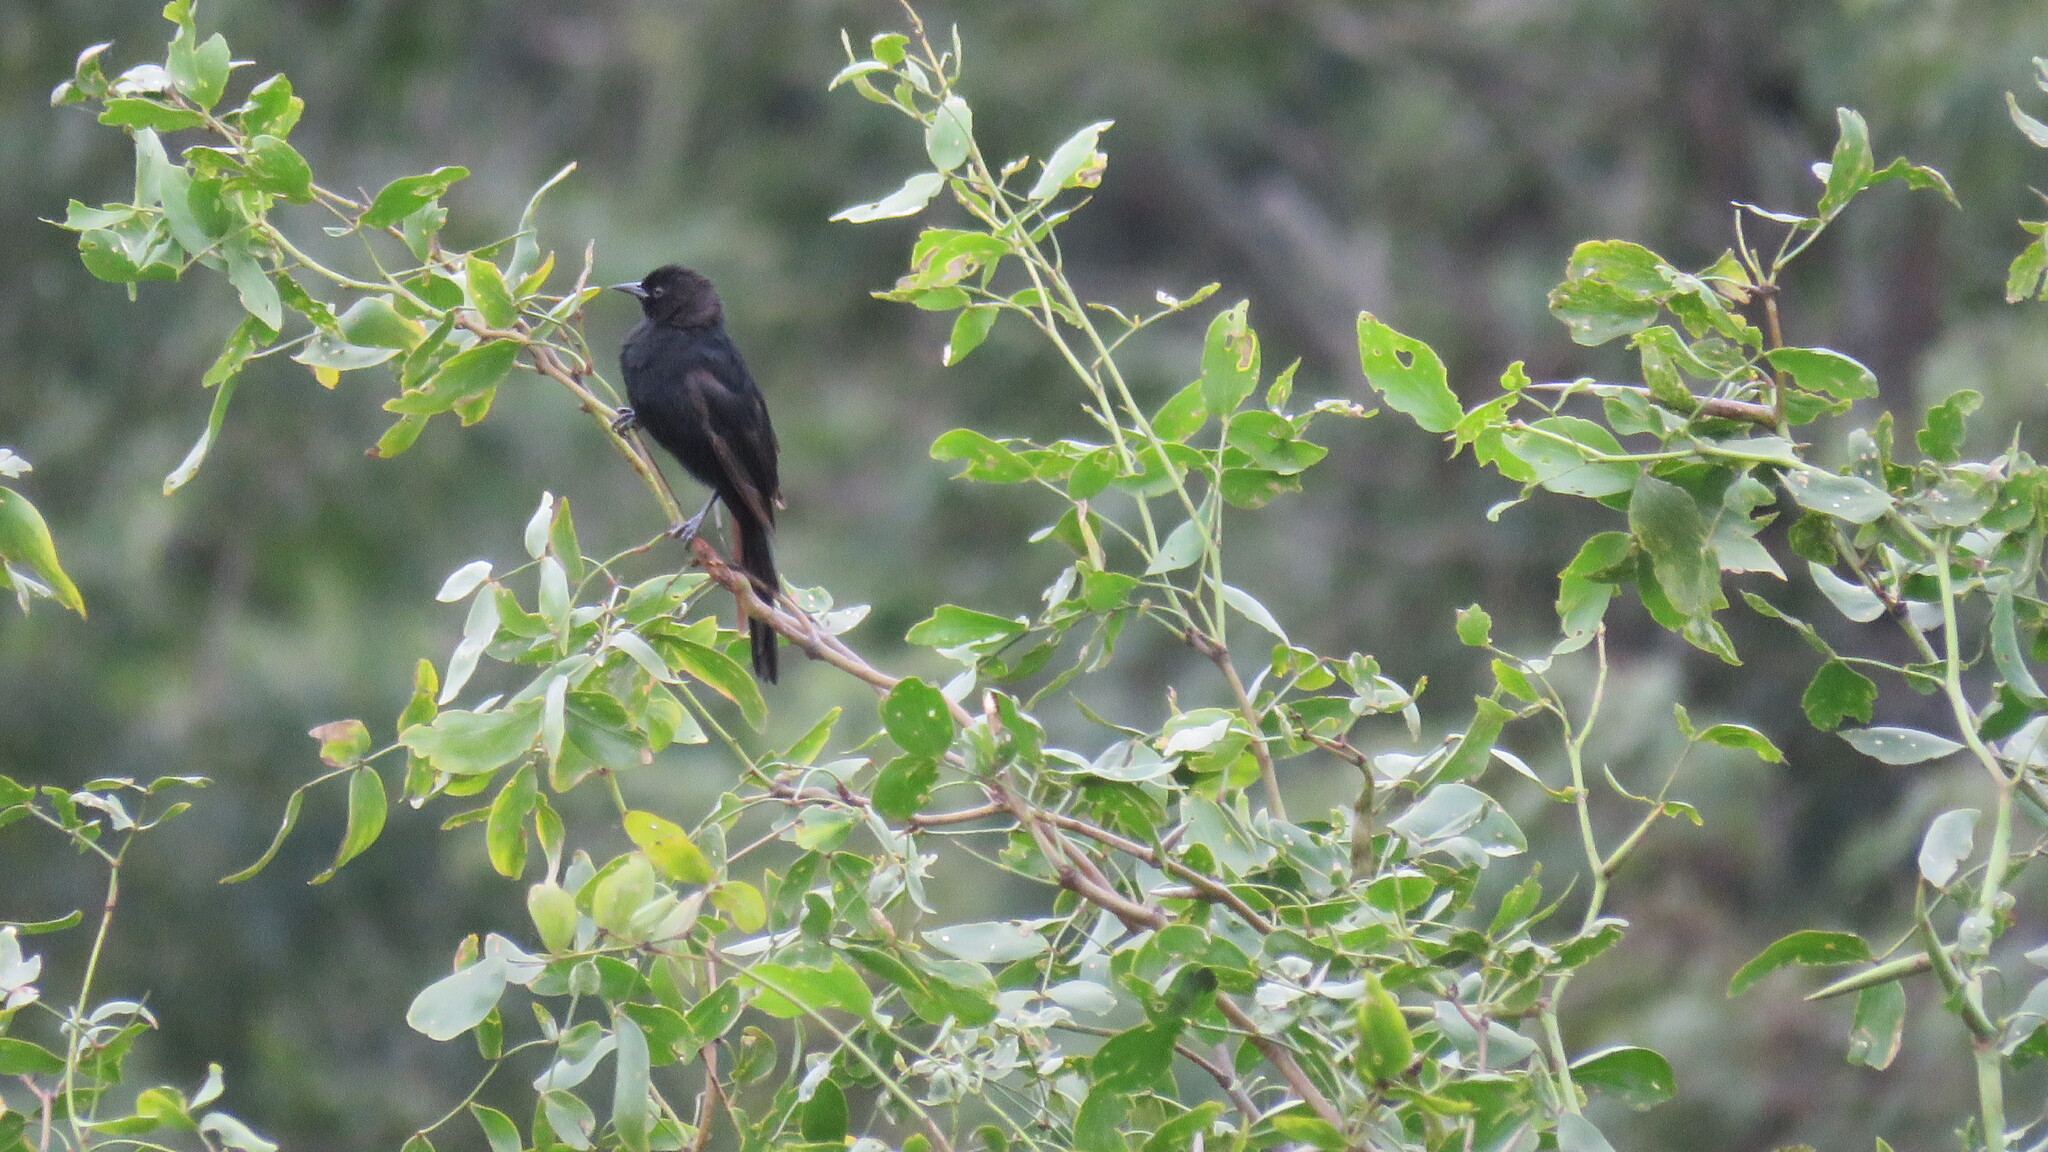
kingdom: Animalia
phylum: Chordata
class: Aves
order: Passeriformes
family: Icteridae
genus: Icterus
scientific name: Icterus cayanensis
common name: Epaulet oriole
